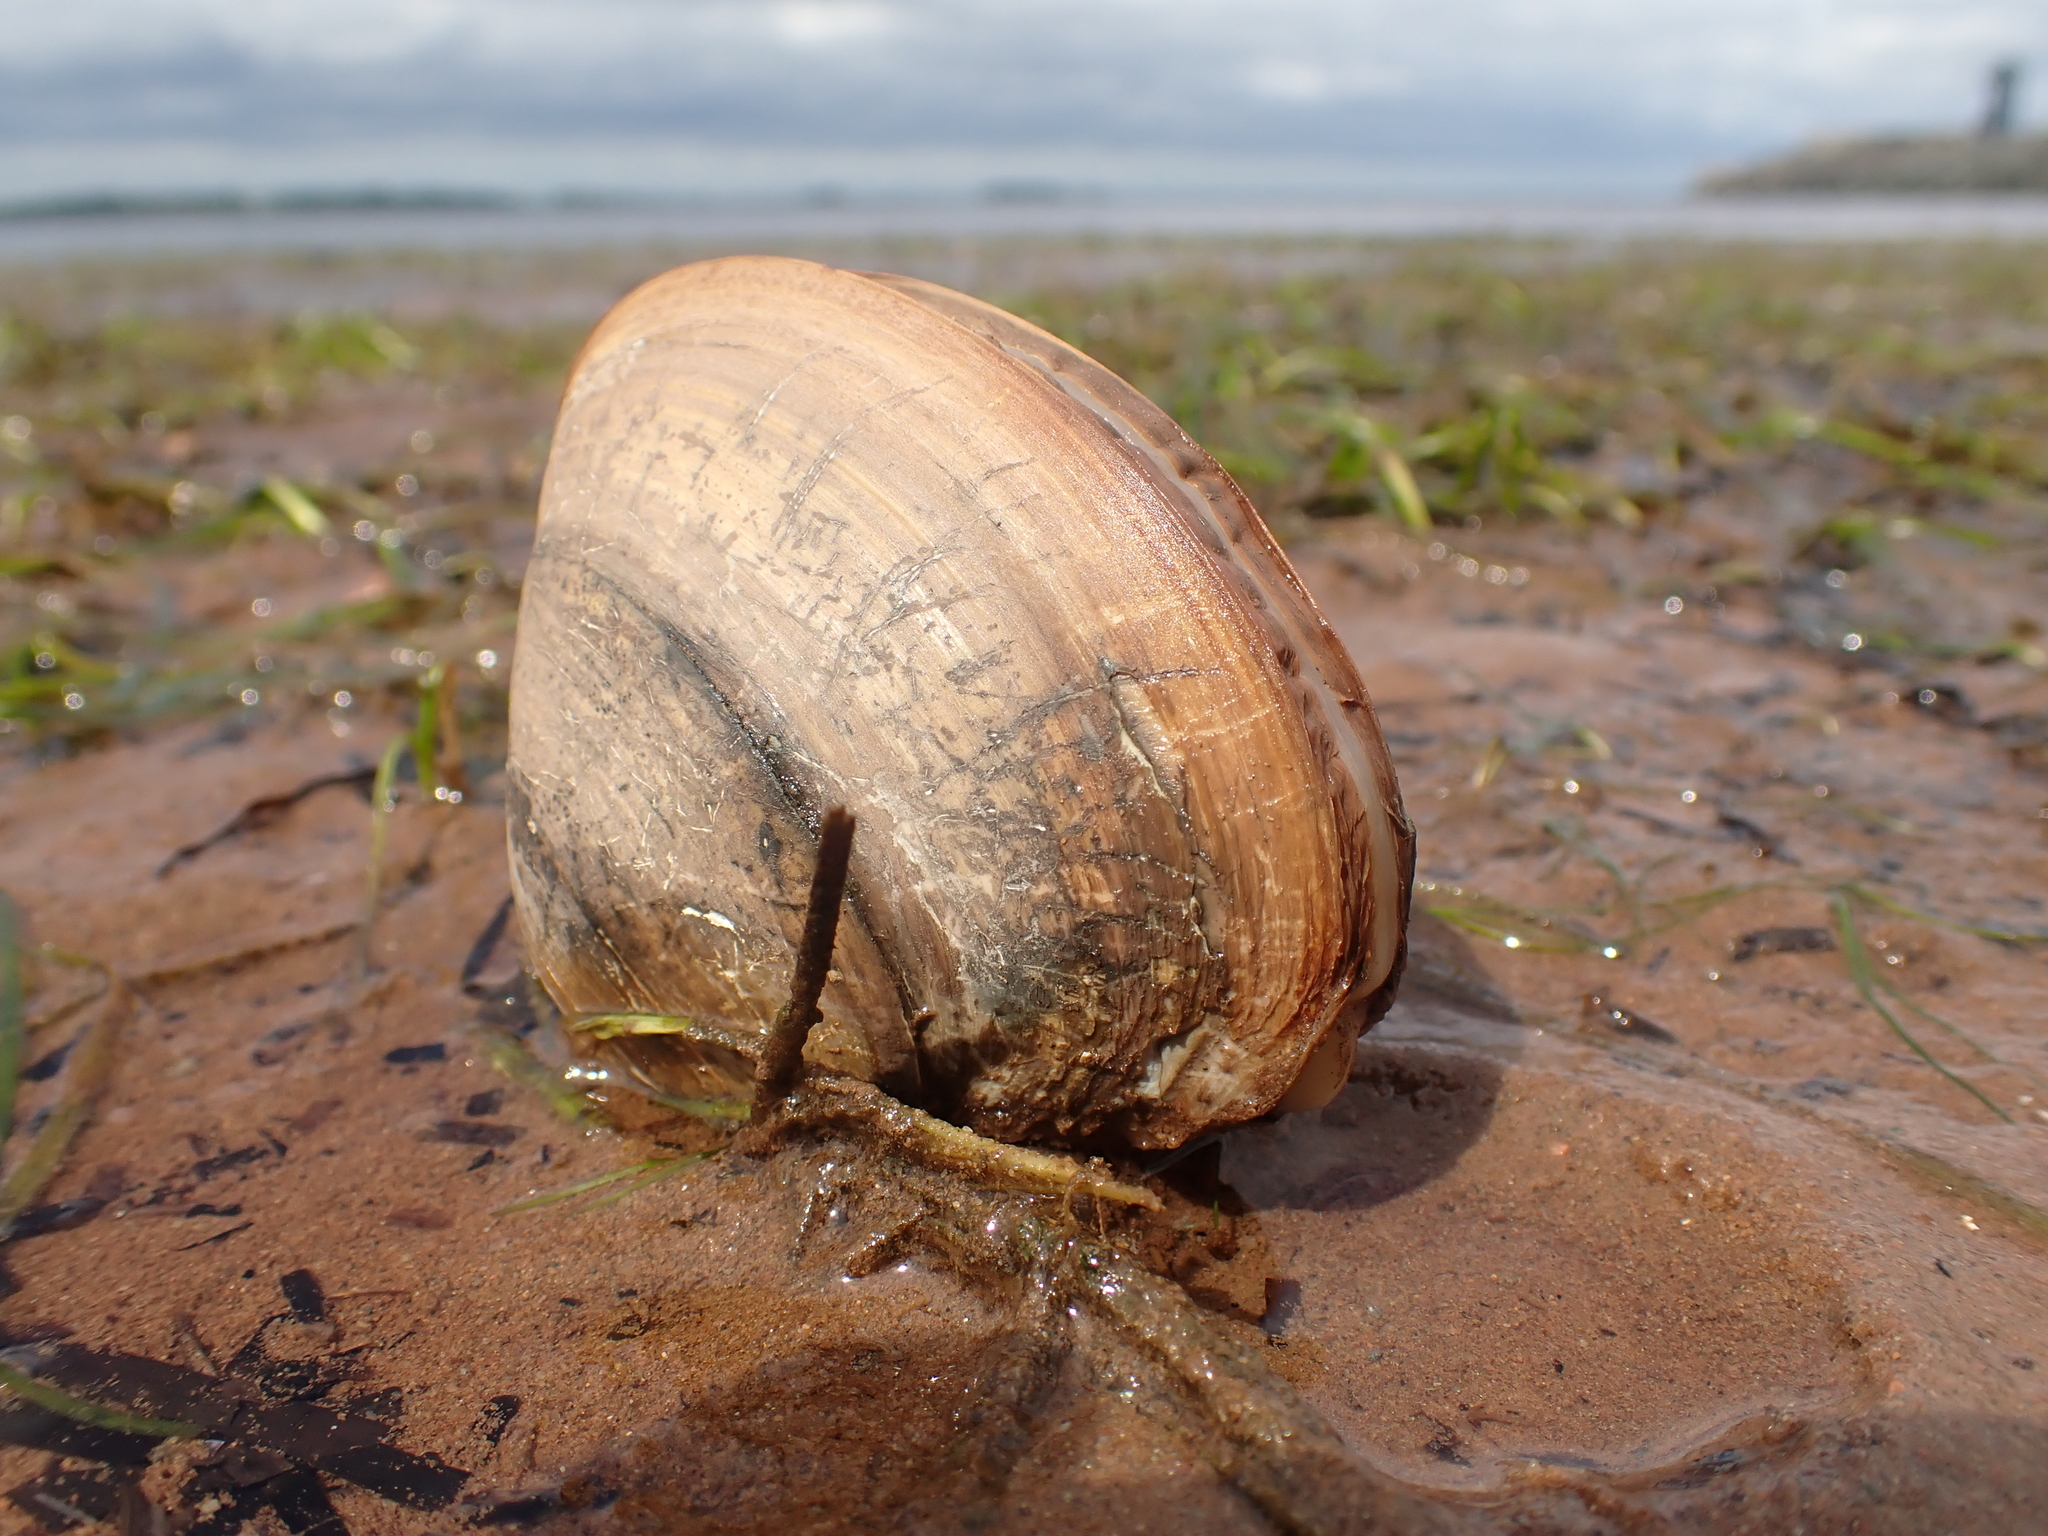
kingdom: Animalia
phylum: Mollusca
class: Bivalvia
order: Venerida
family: Mactridae
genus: Spisula
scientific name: Spisula solidissima
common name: Atlantic surf clam
